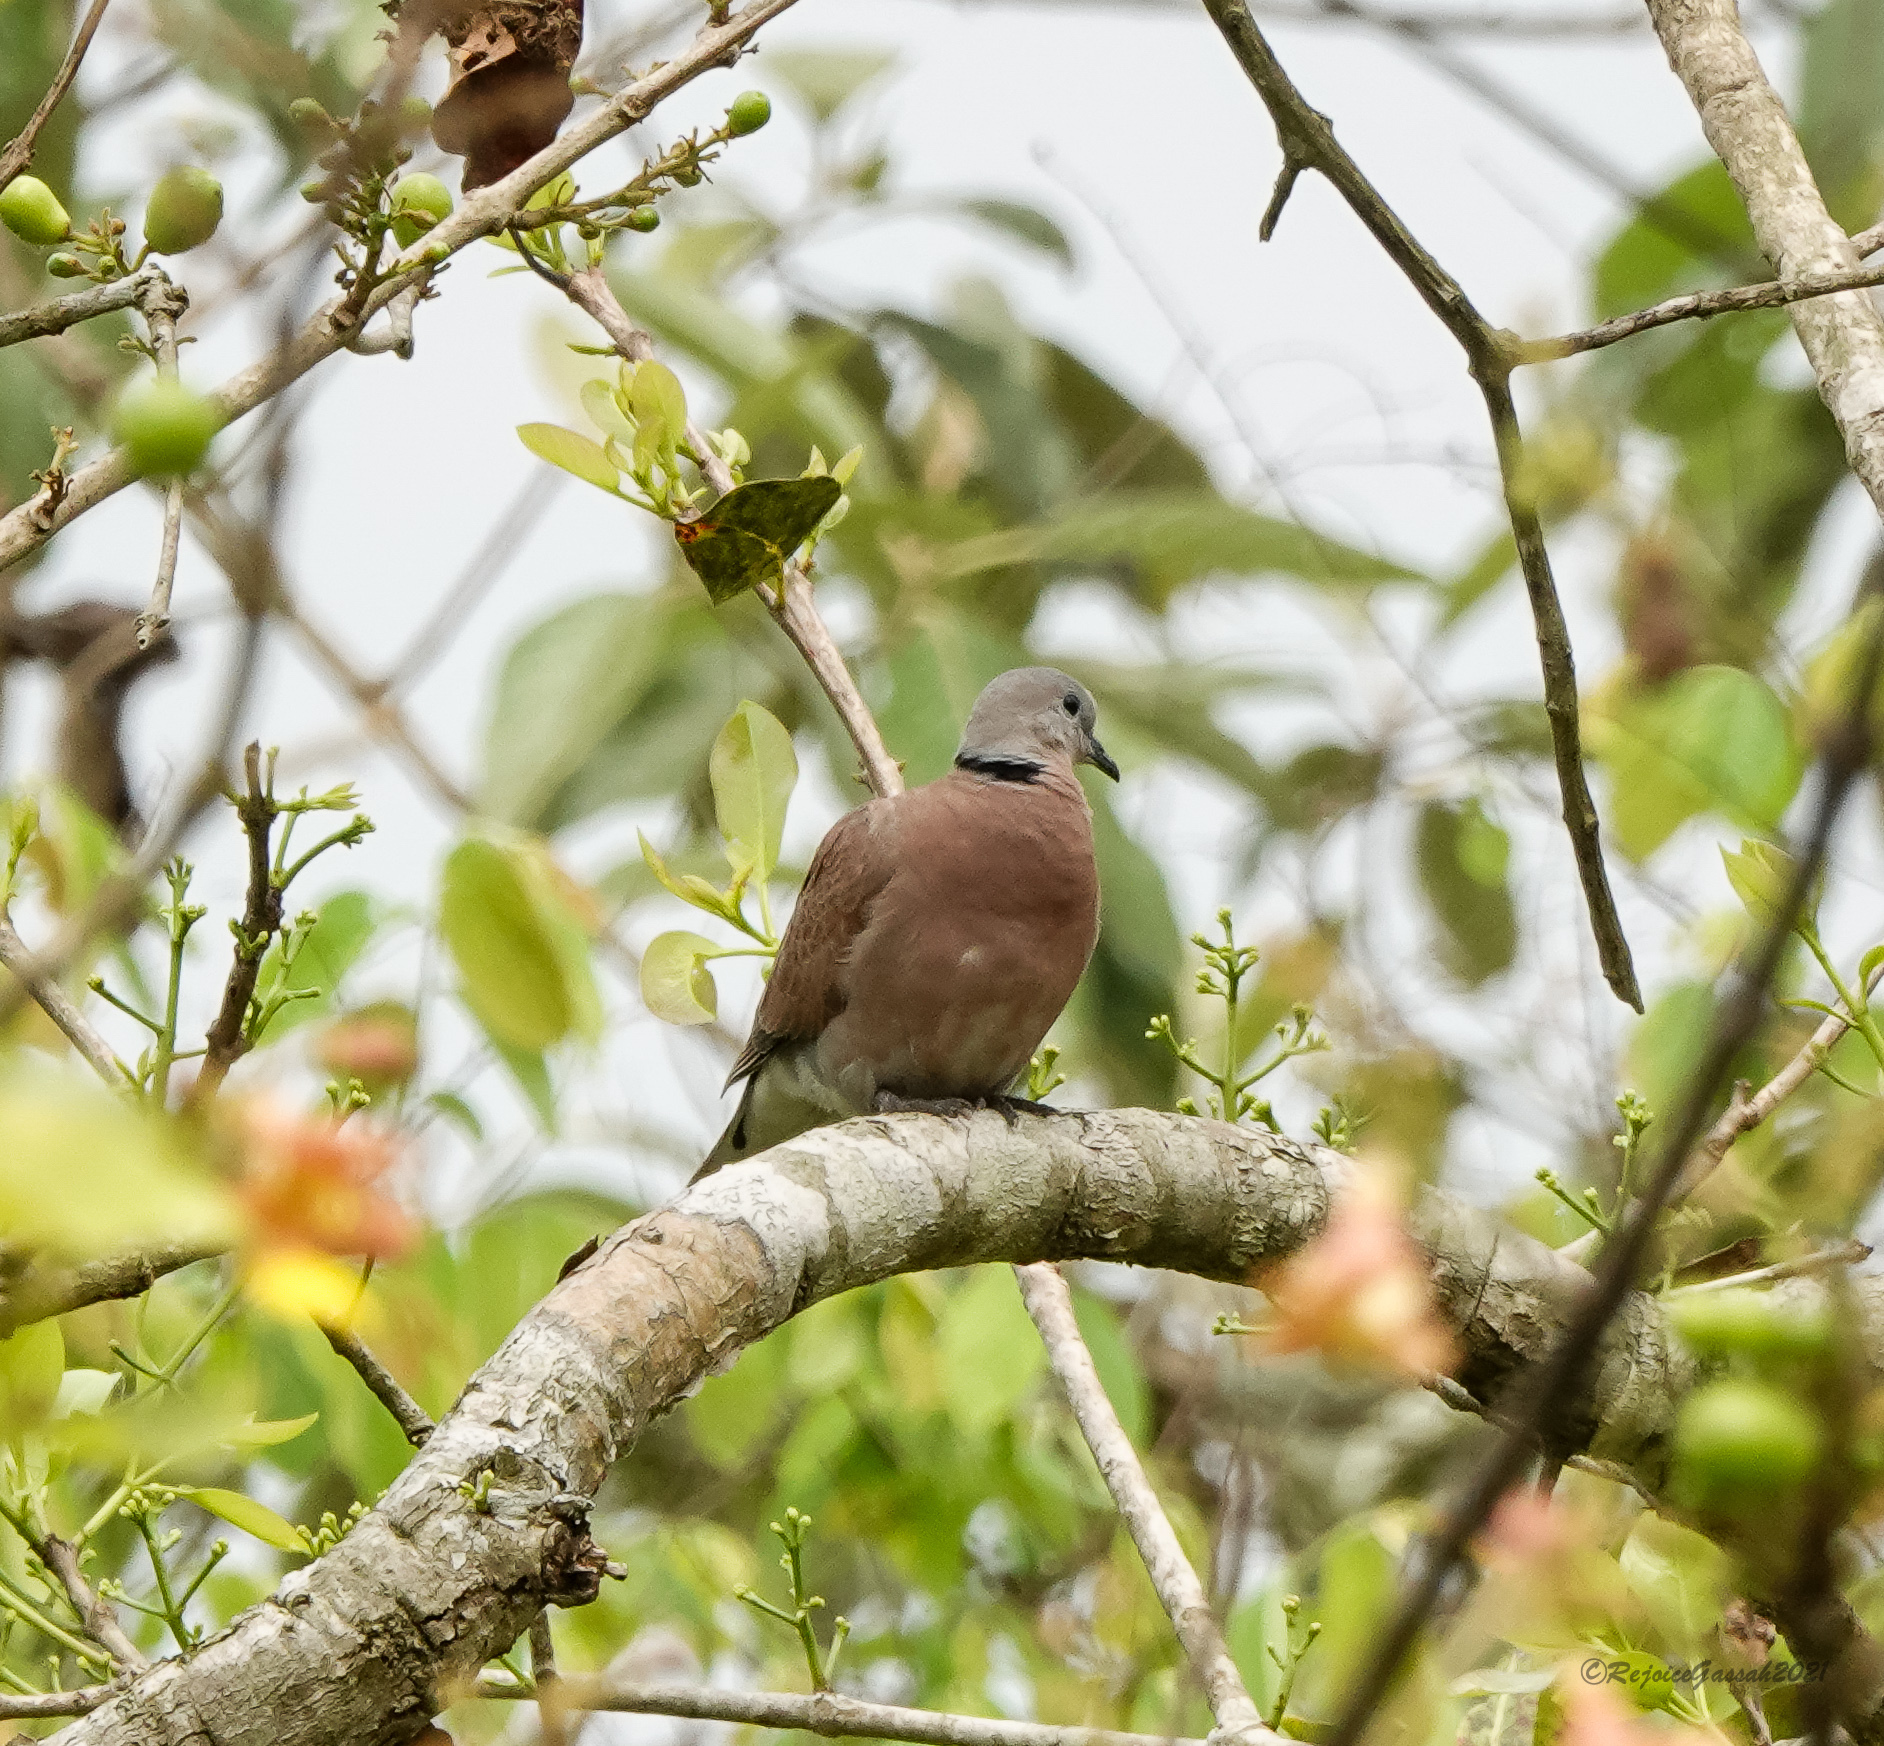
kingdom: Animalia
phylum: Chordata
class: Aves
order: Columbiformes
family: Columbidae
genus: Streptopelia
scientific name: Streptopelia tranquebarica
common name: Red turtle dove
